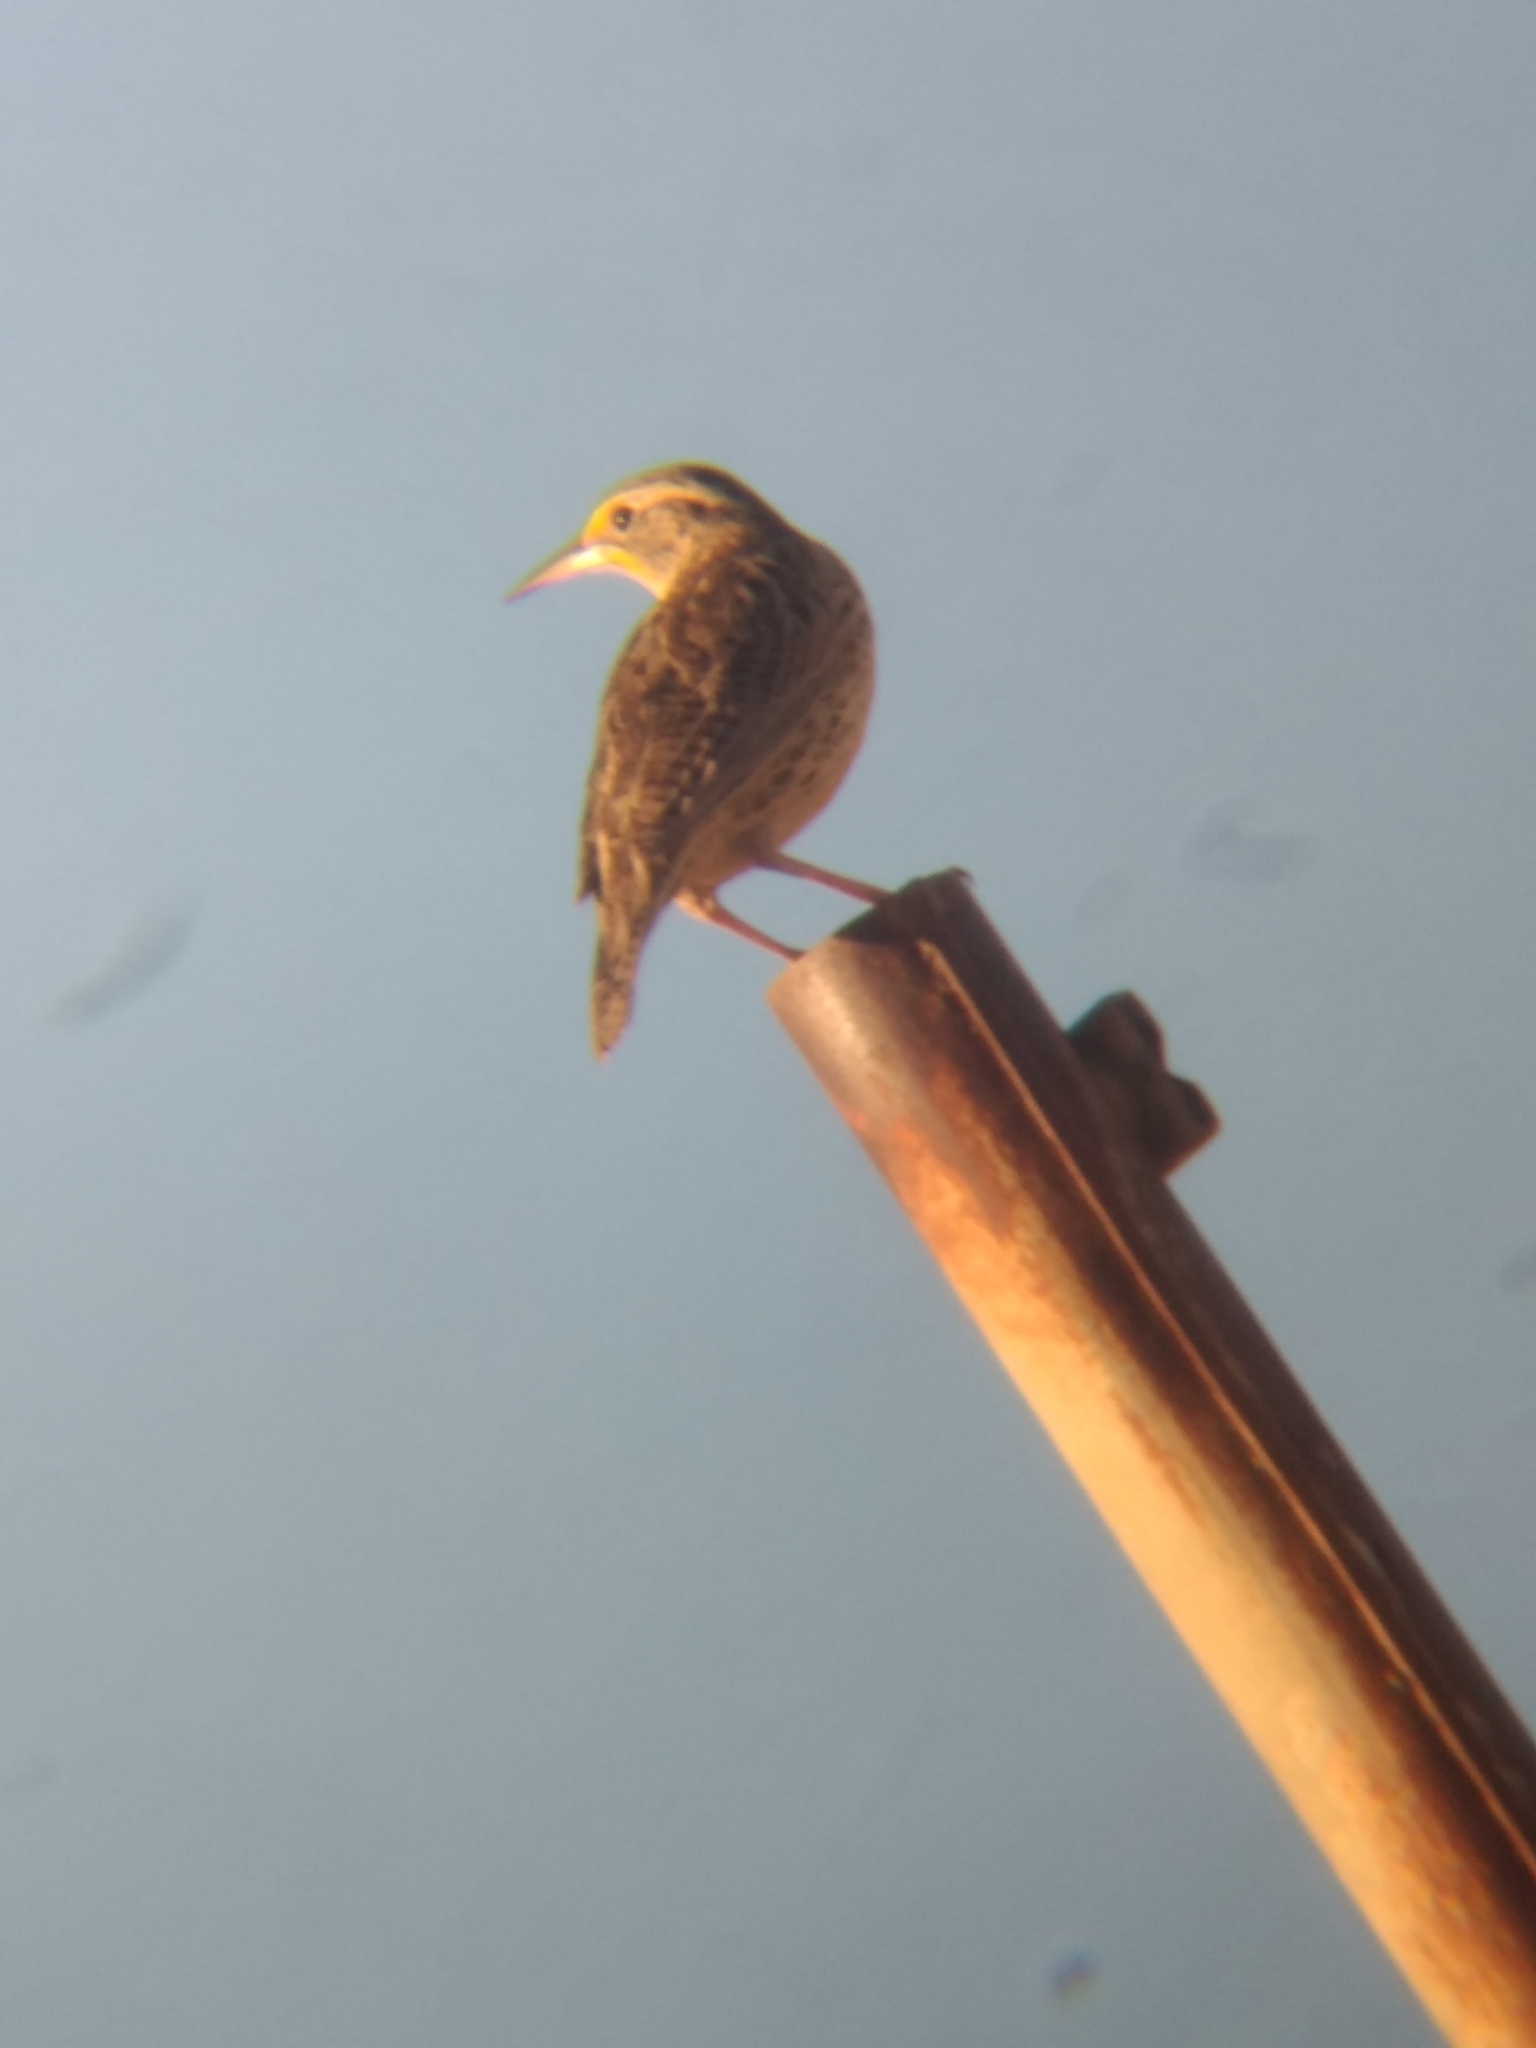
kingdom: Animalia
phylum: Chordata
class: Aves
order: Passeriformes
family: Icteridae
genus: Sturnella
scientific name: Sturnella neglecta
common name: Western meadowlark
